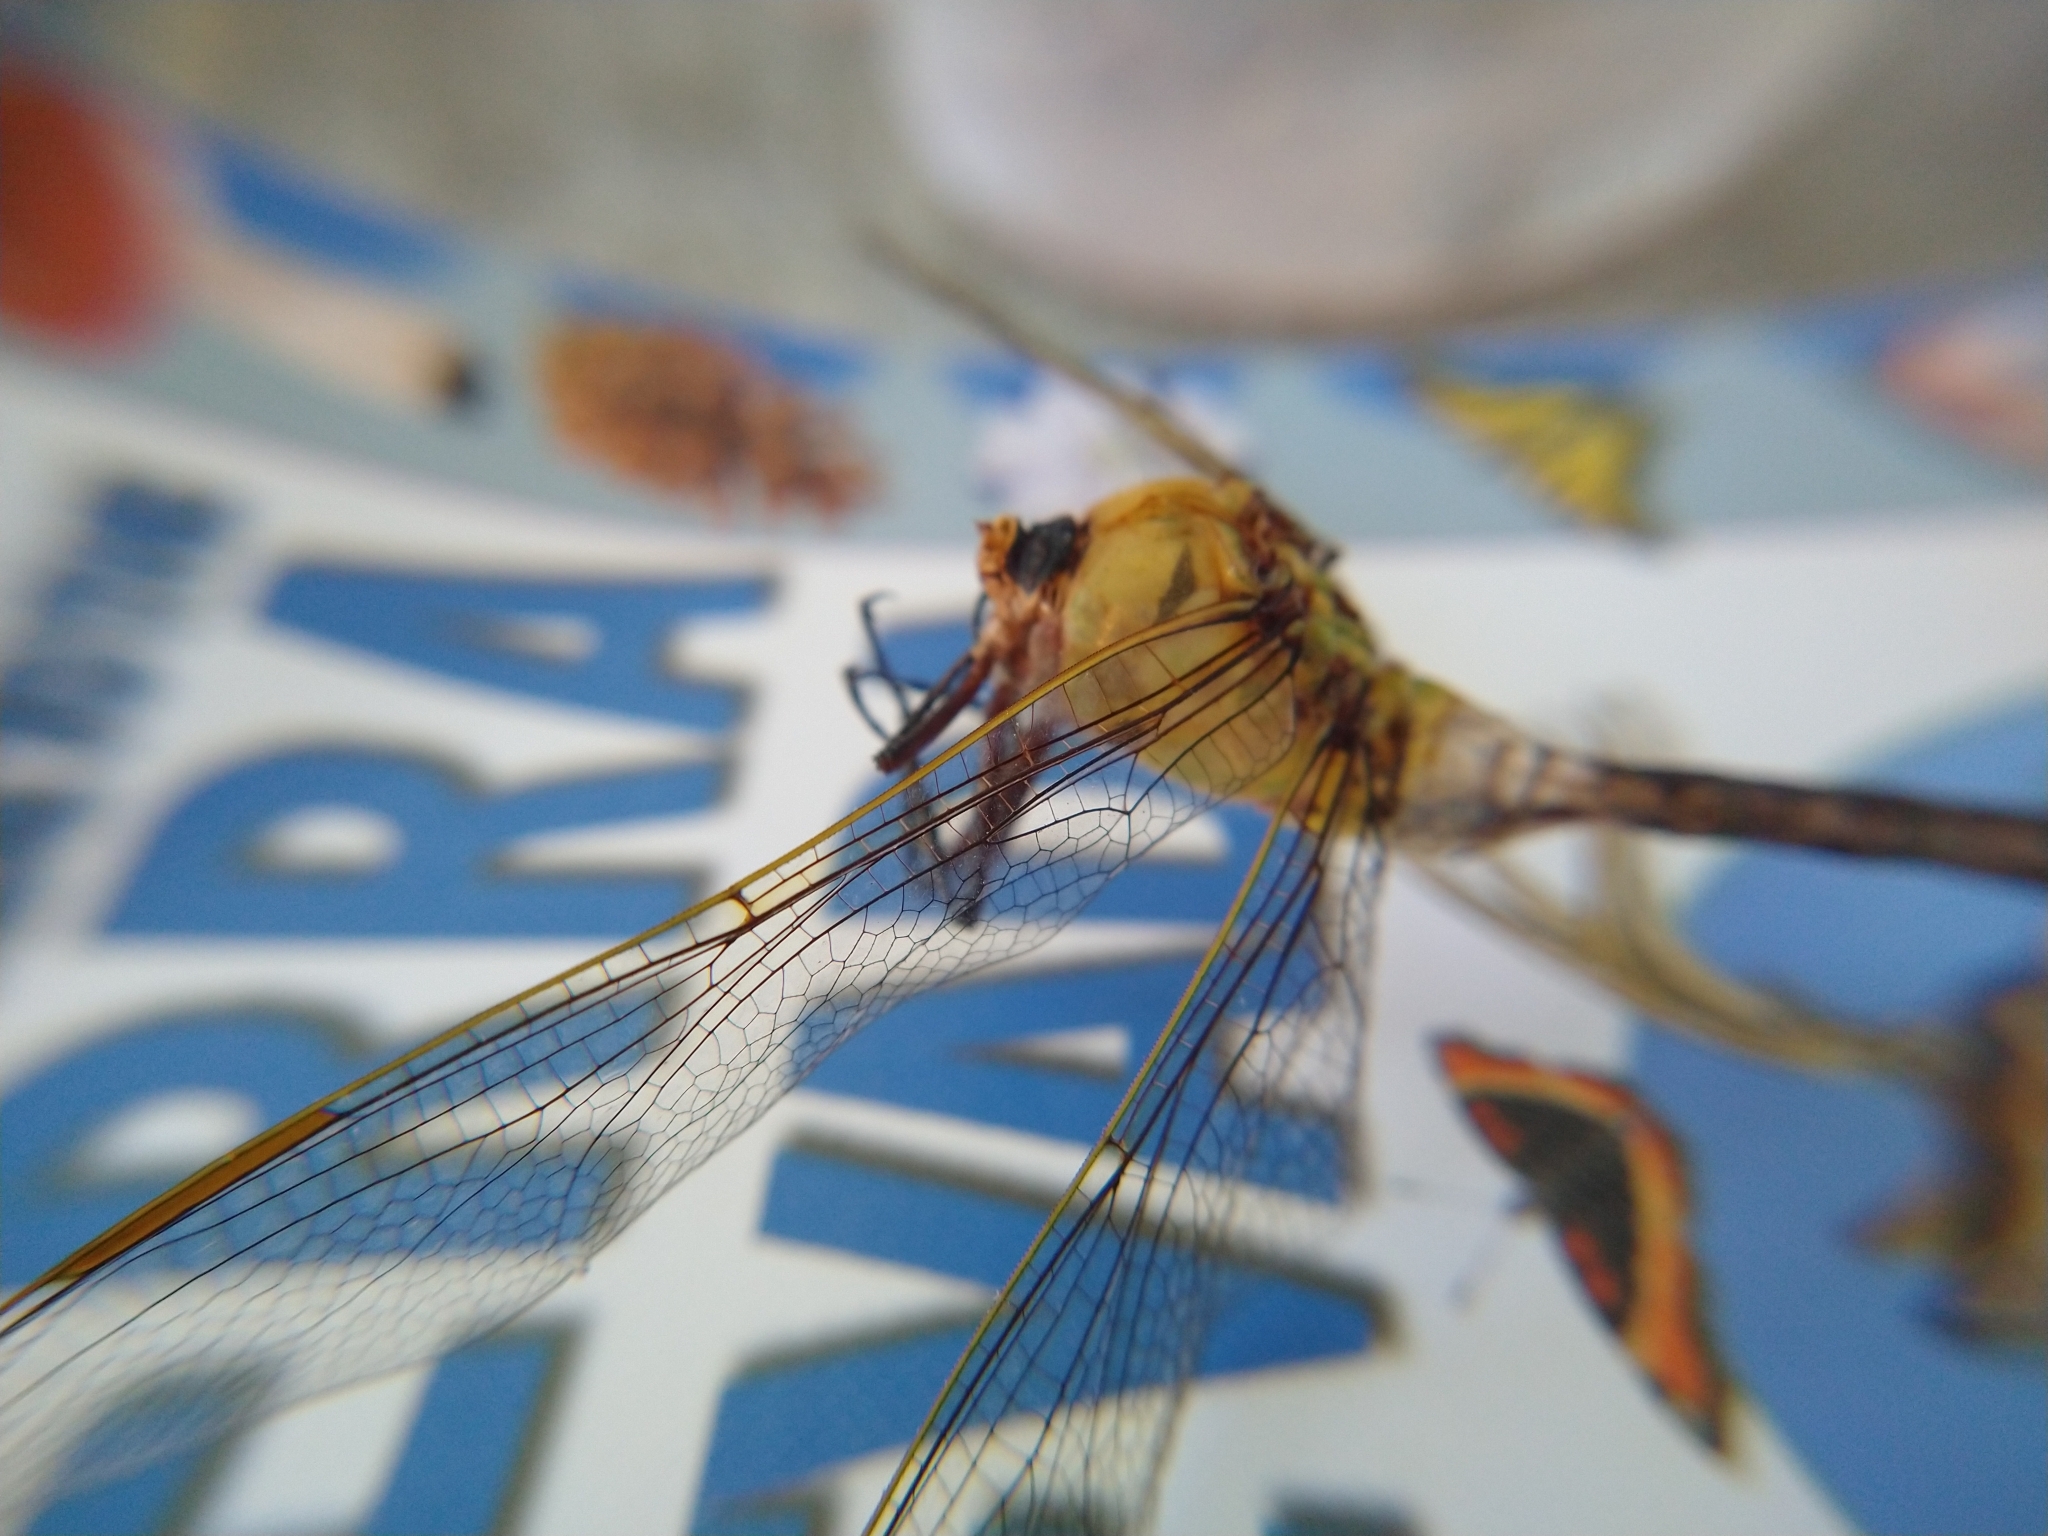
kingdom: Animalia
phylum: Arthropoda
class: Insecta
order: Odonata
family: Aeshnidae
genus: Anax
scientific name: Anax junius
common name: Common green darner
